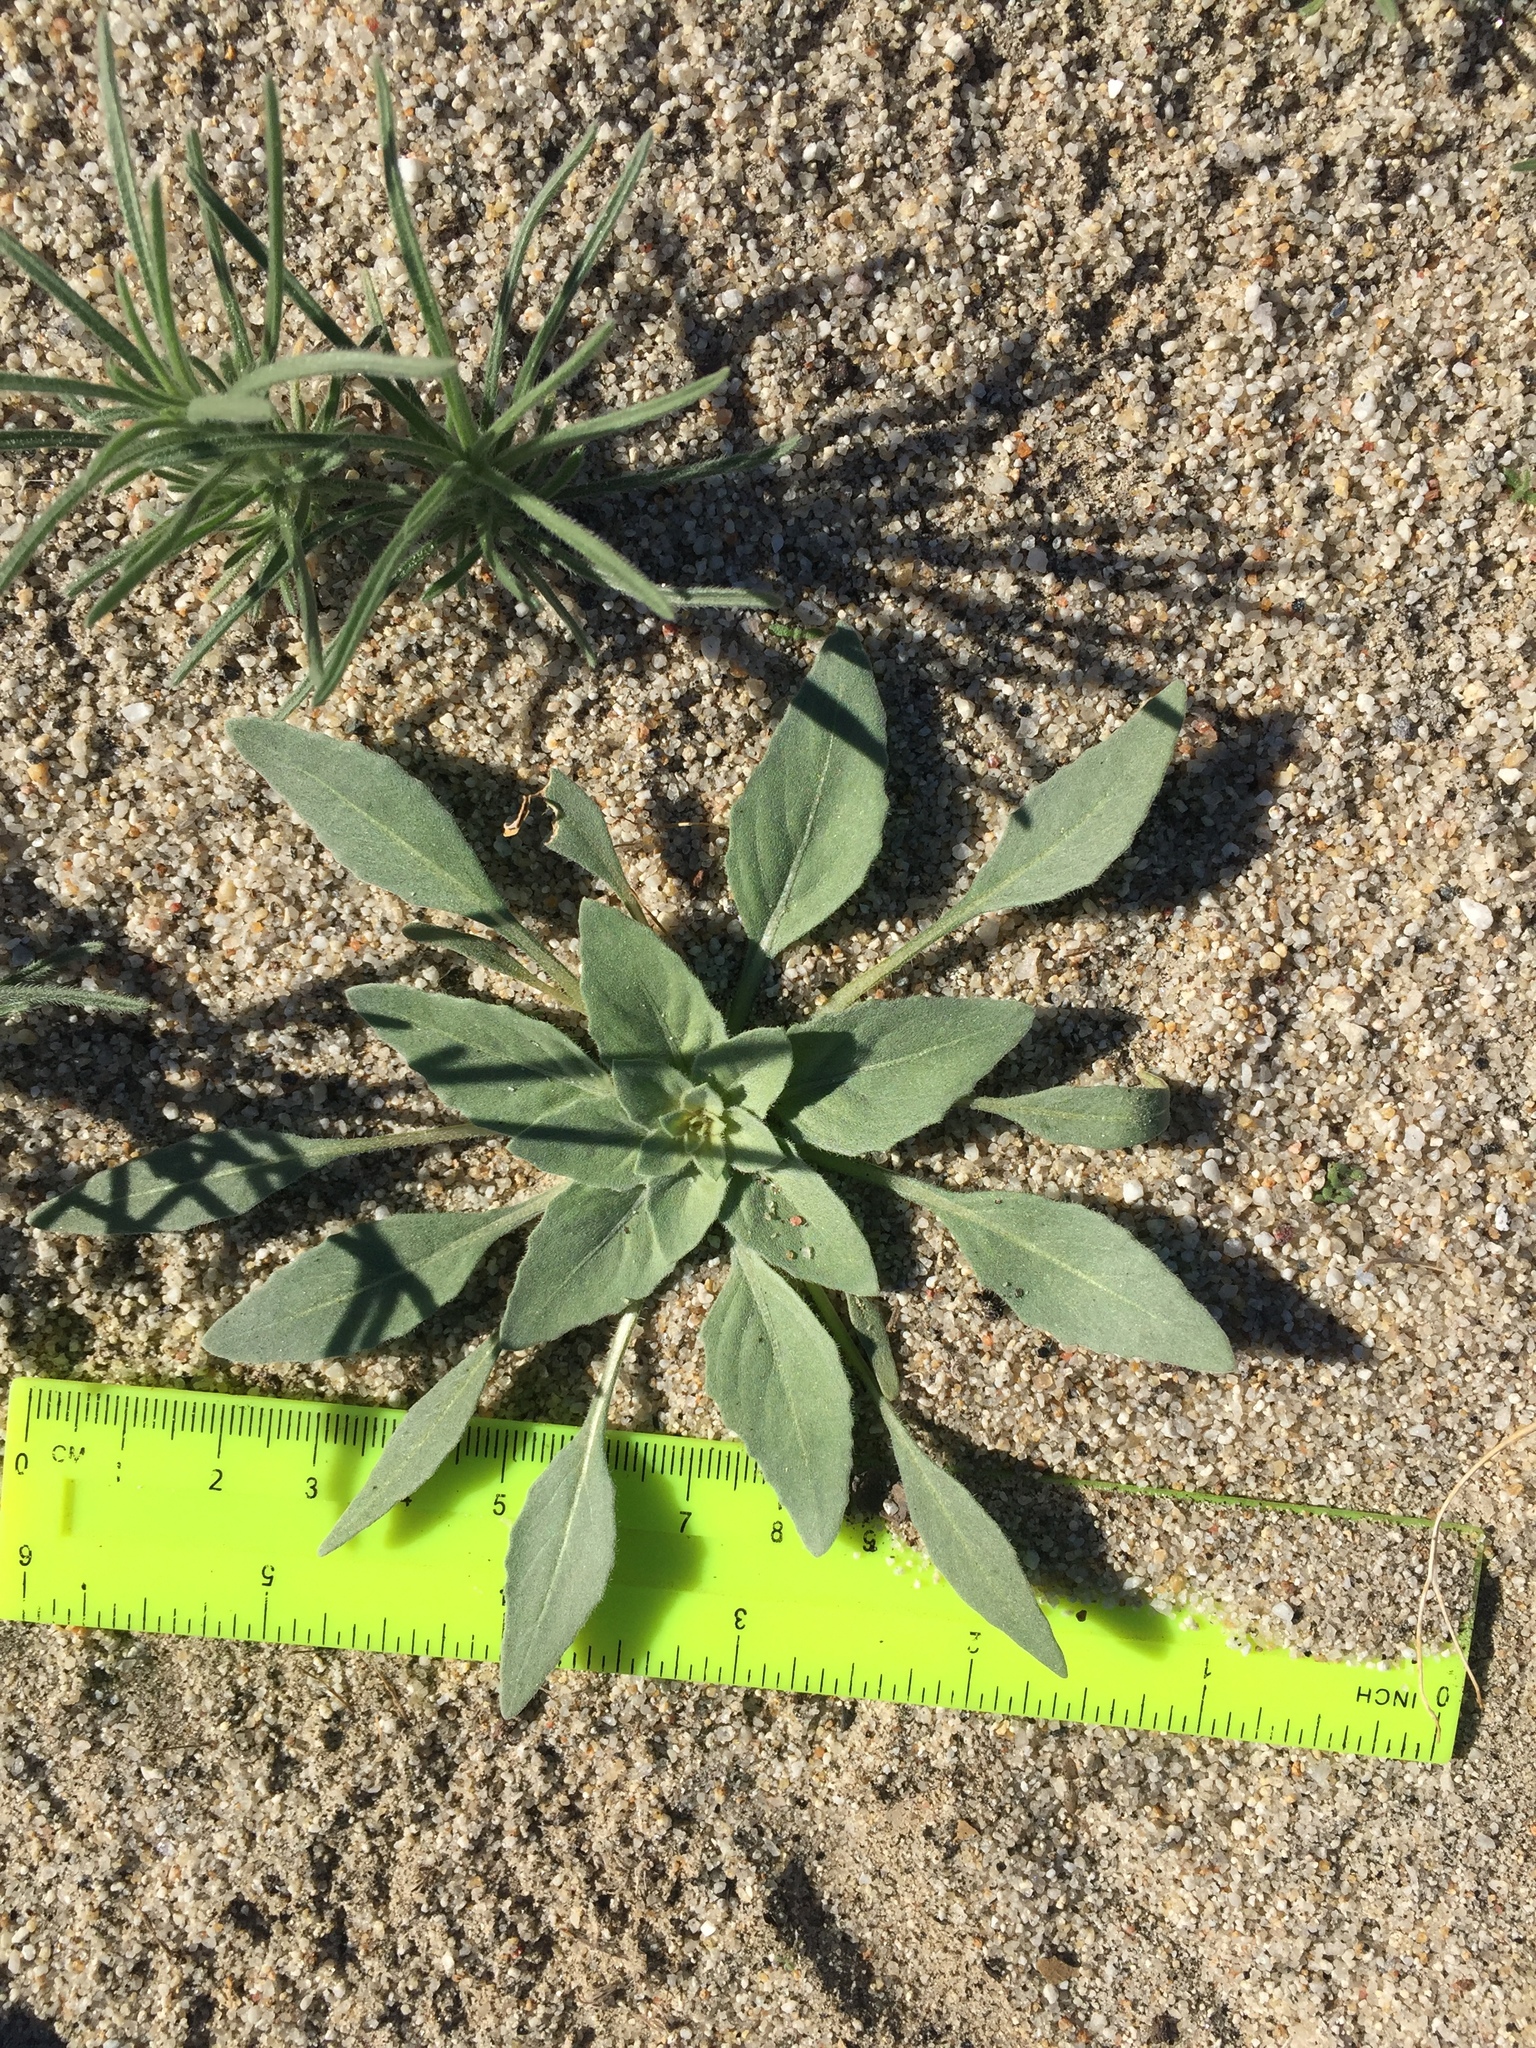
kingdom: Plantae
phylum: Tracheophyta
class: Magnoliopsida
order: Myrtales
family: Onagraceae
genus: Oenothera
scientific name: Oenothera deltoides
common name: Basket evening-primrose
